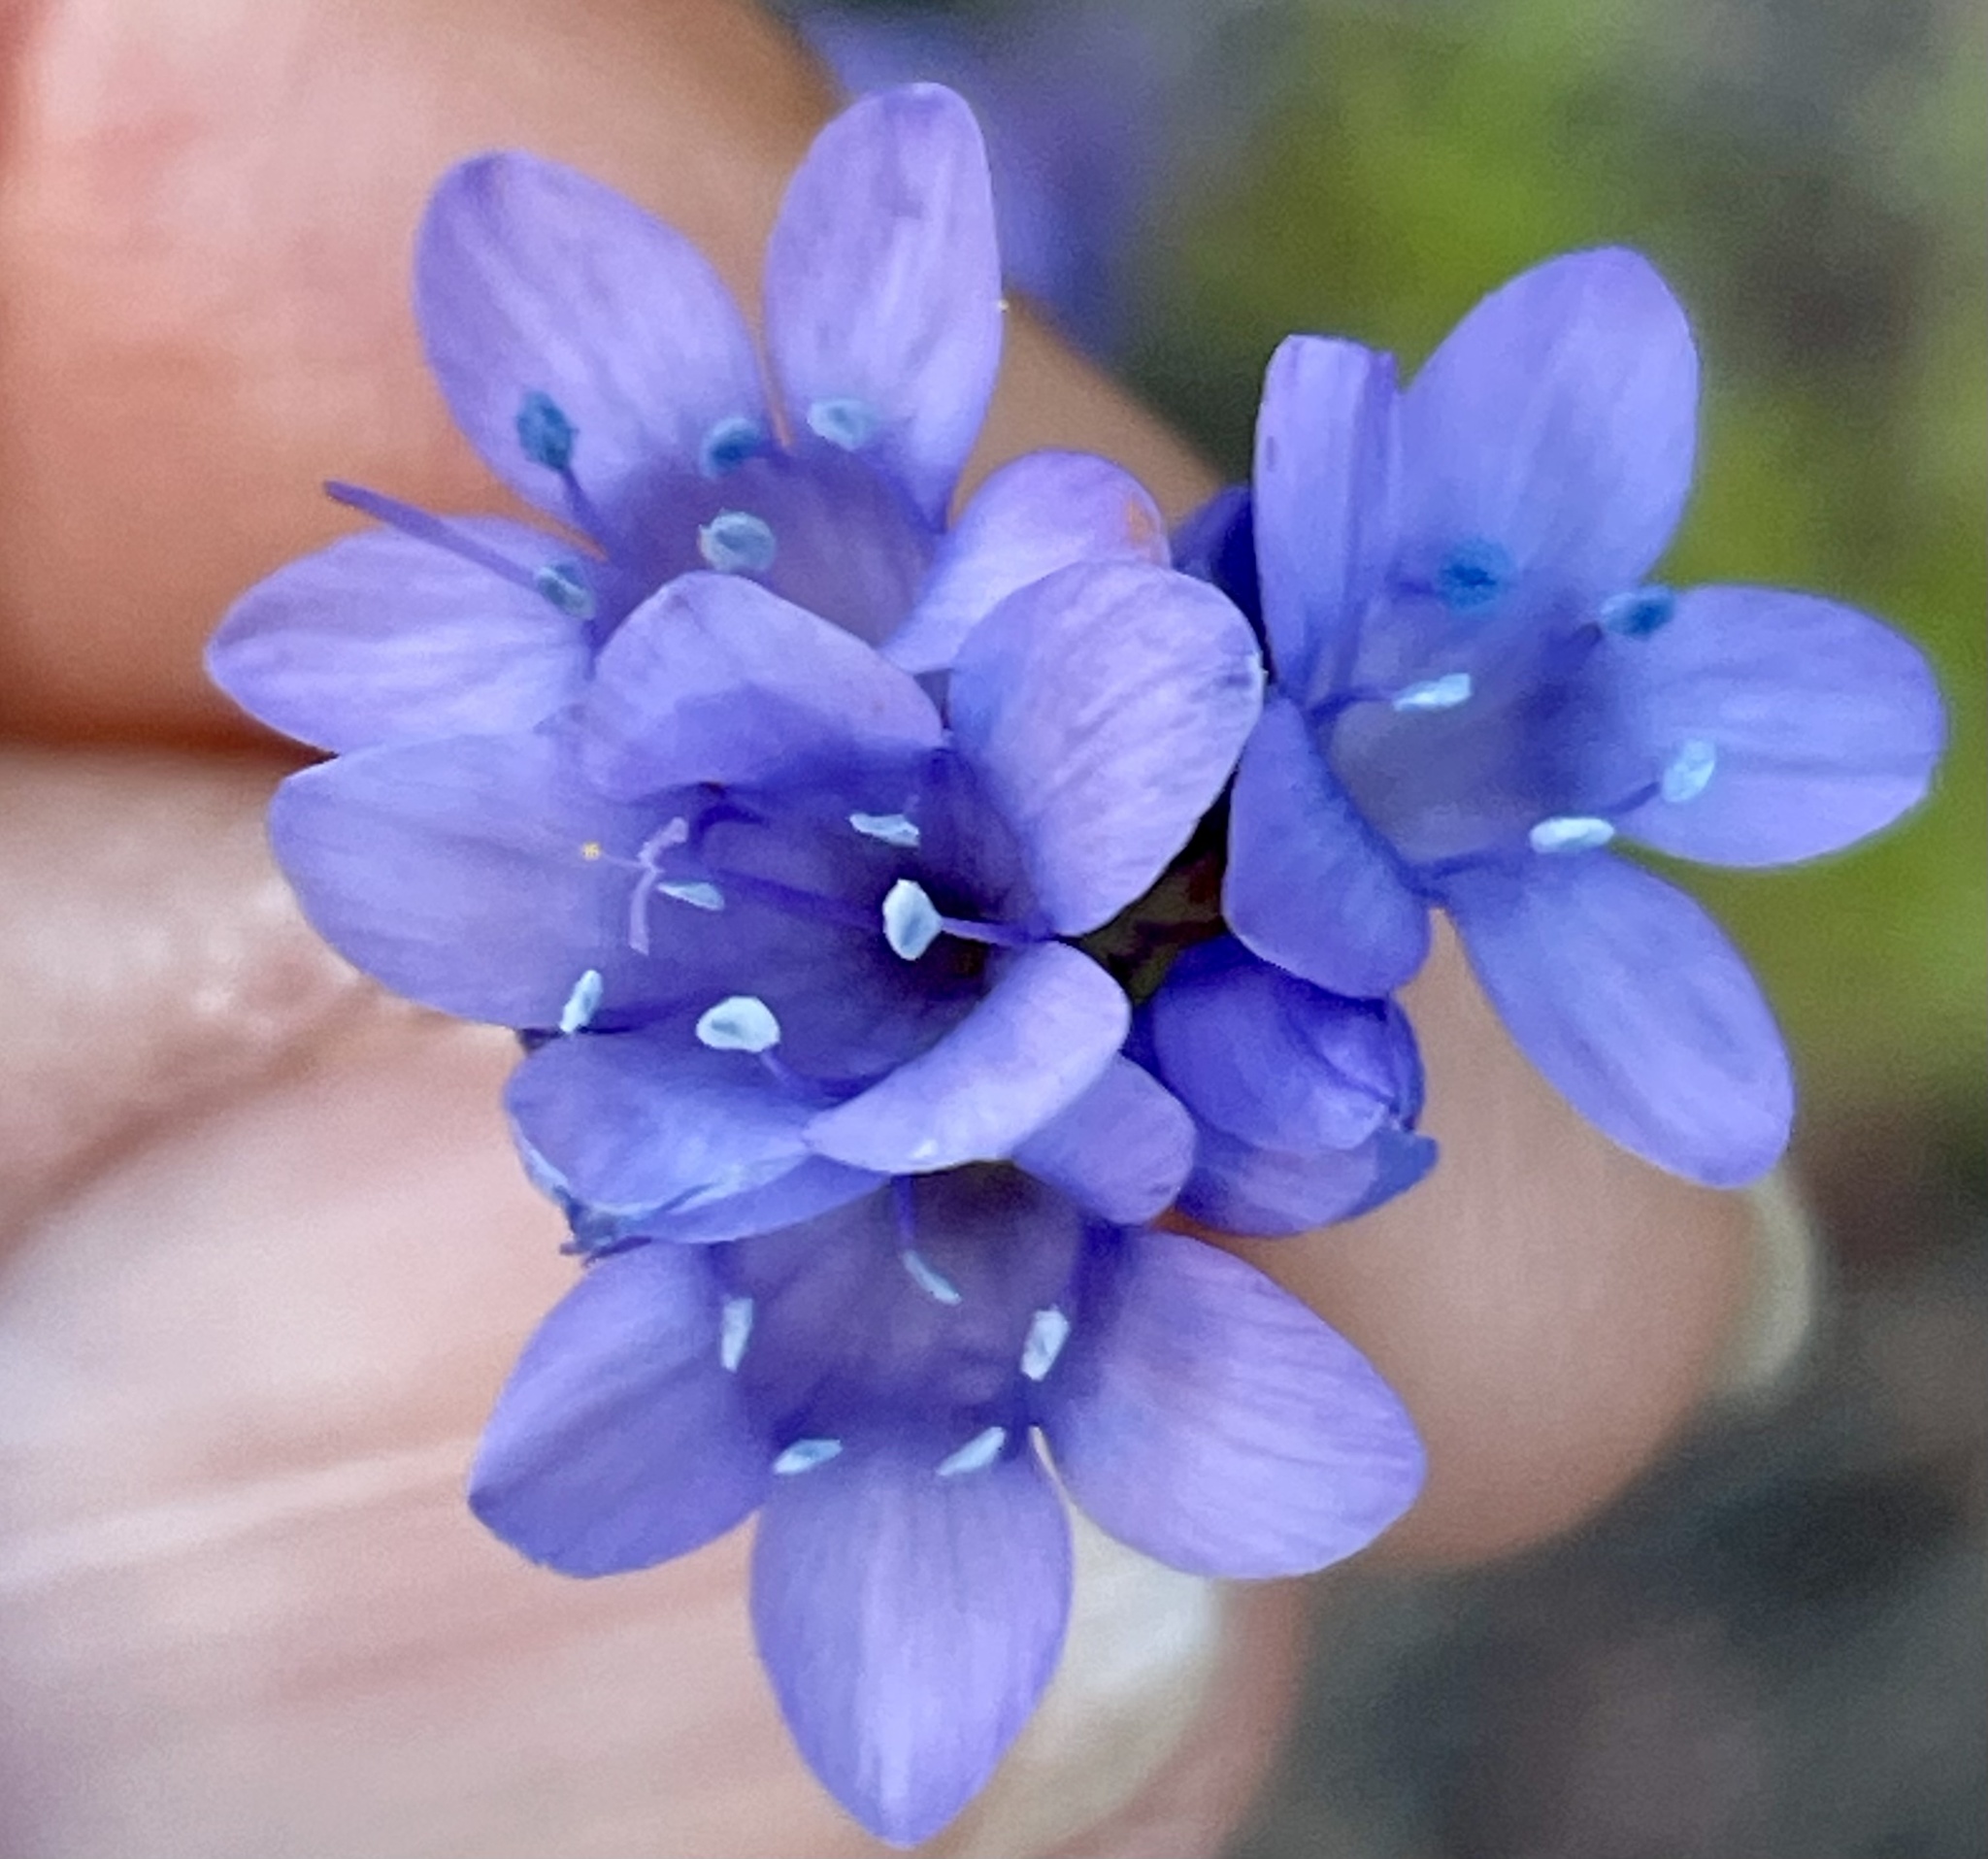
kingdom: Plantae
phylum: Tracheophyta
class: Magnoliopsida
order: Ericales
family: Polemoniaceae
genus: Gilia
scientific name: Gilia achilleifolia
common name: California gily-flower
